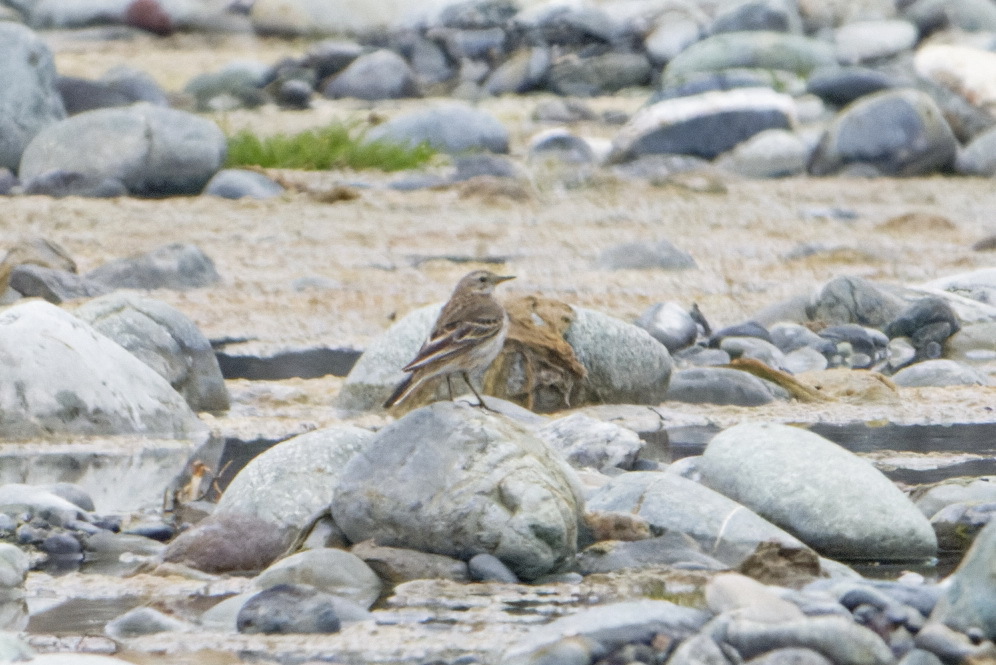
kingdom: Animalia
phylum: Chordata
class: Aves
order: Passeriformes
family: Motacillidae
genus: Anthus
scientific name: Anthus spinoletta
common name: Water pipit
